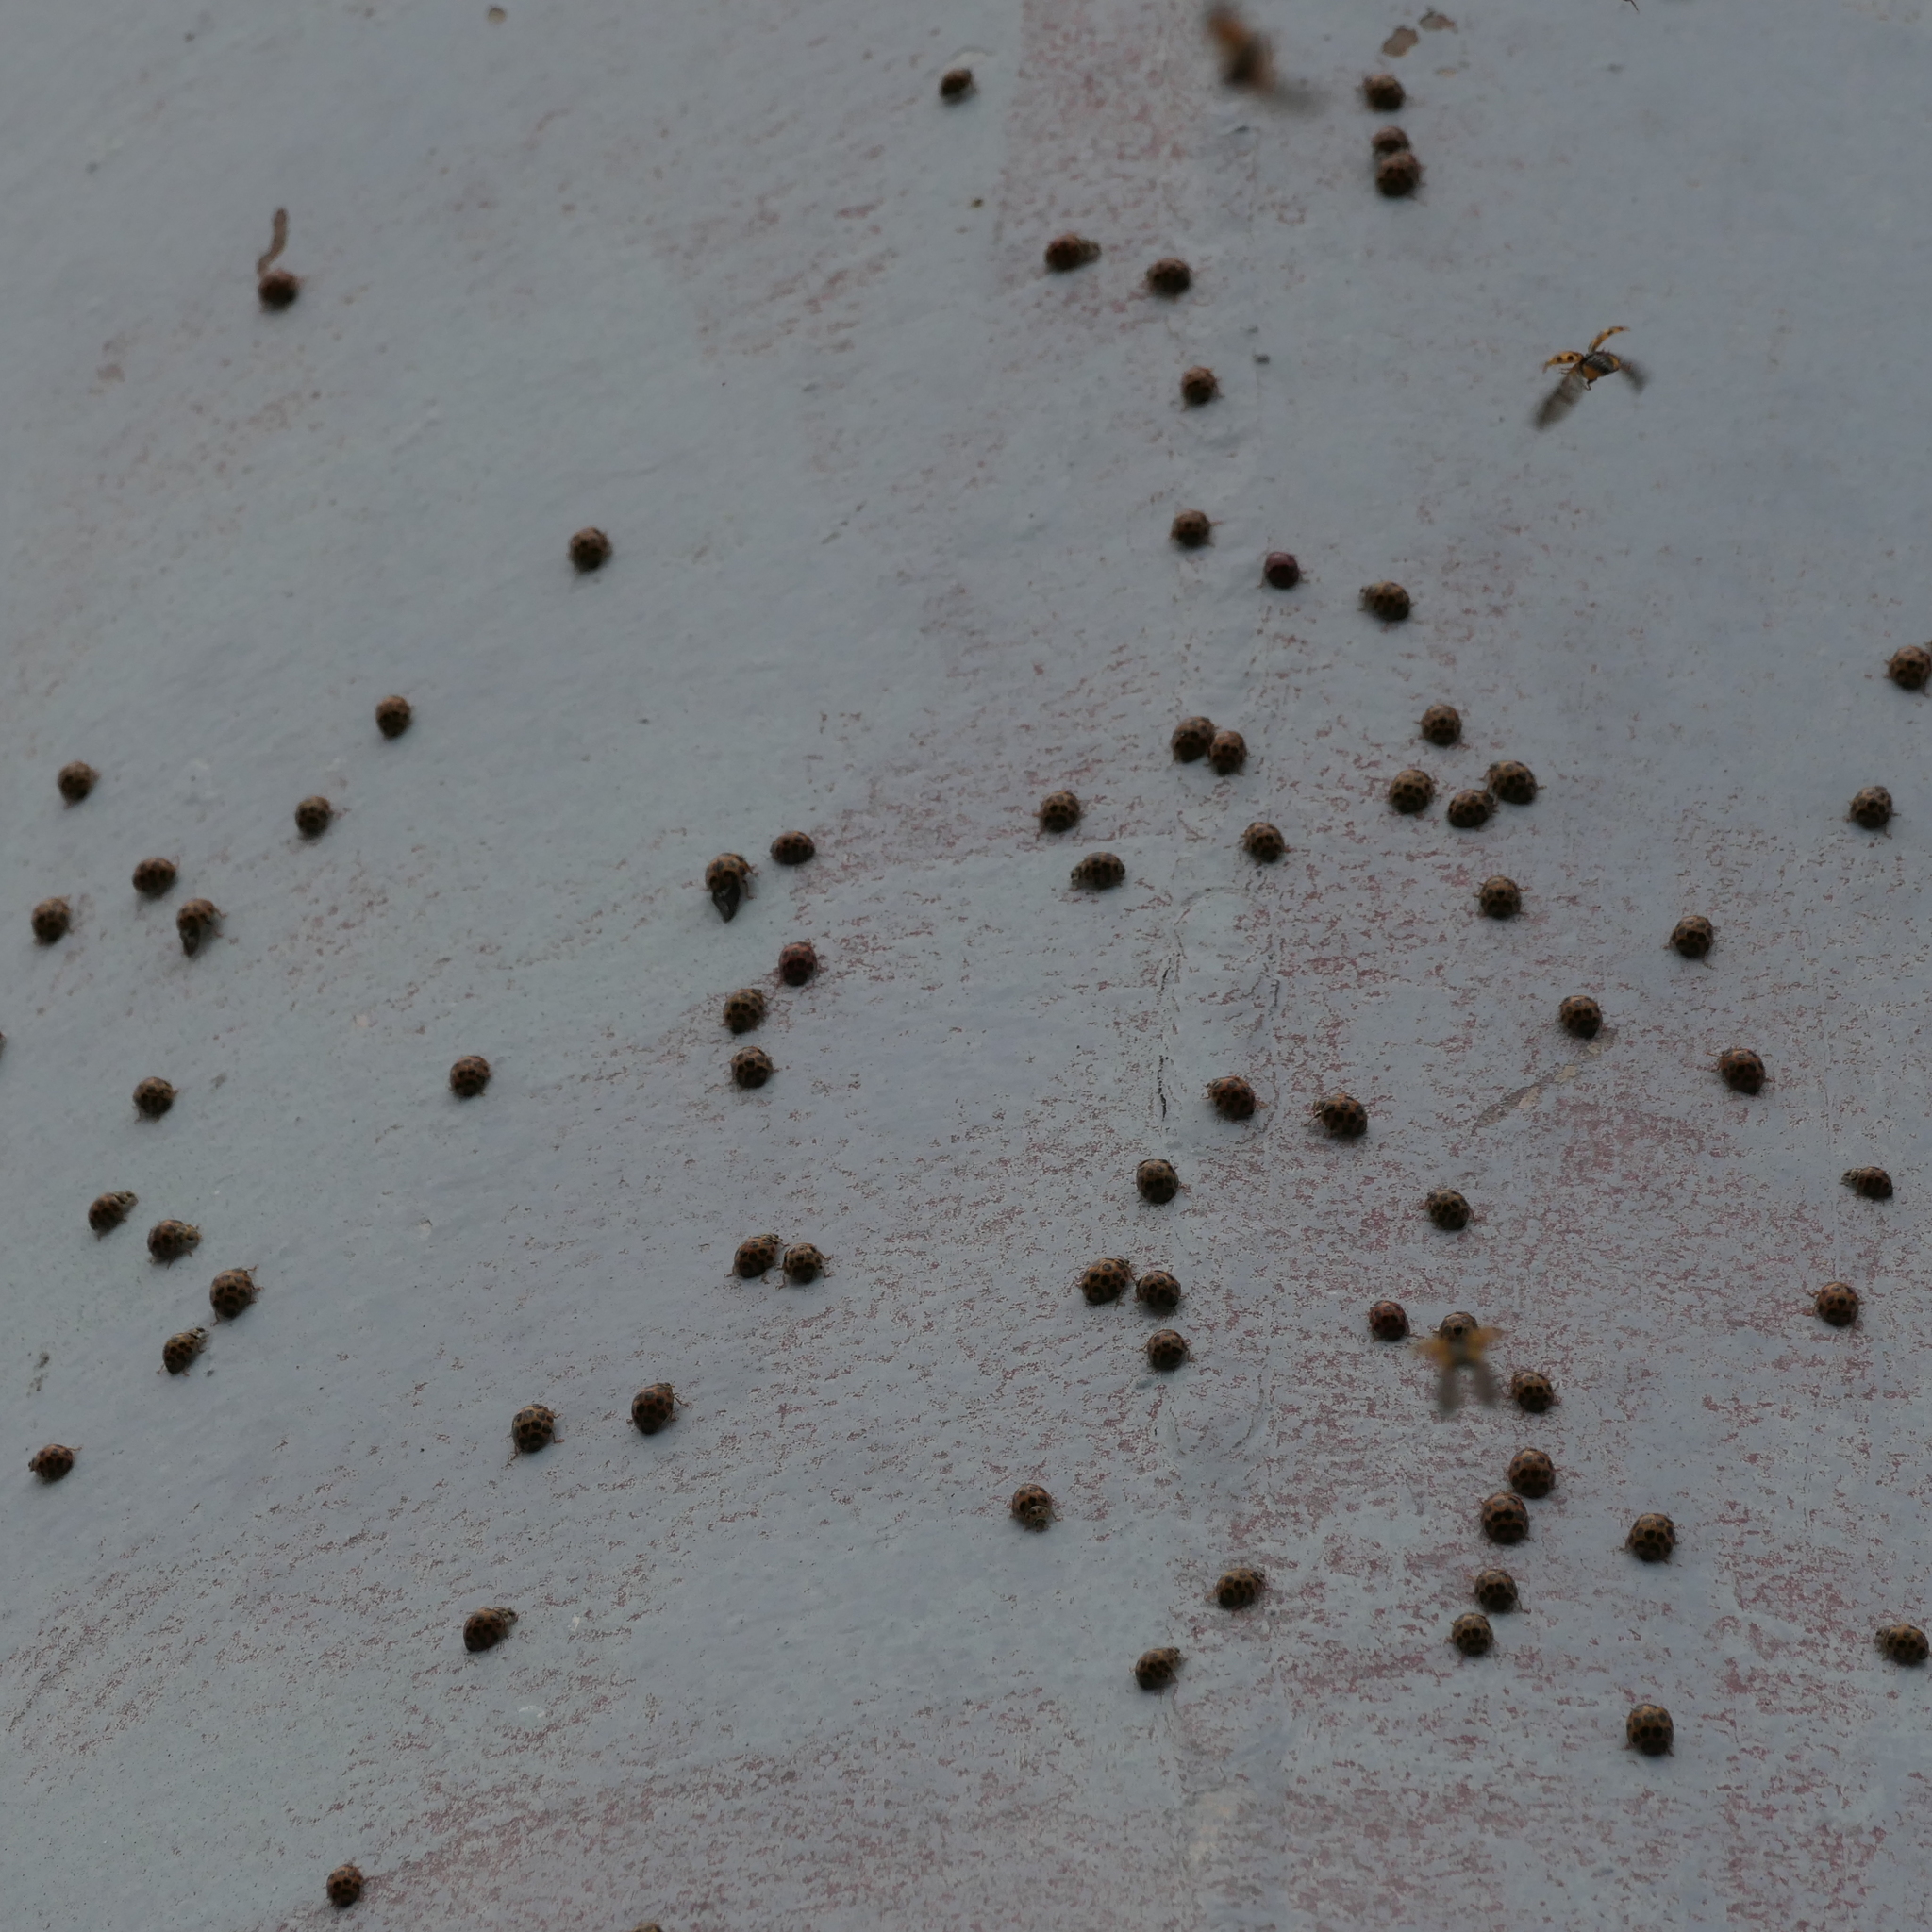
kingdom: Animalia
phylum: Arthropoda
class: Insecta
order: Coleoptera
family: Coccinellidae
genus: Harmonia
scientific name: Harmonia conformis
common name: Common spotted ladybird beetle
